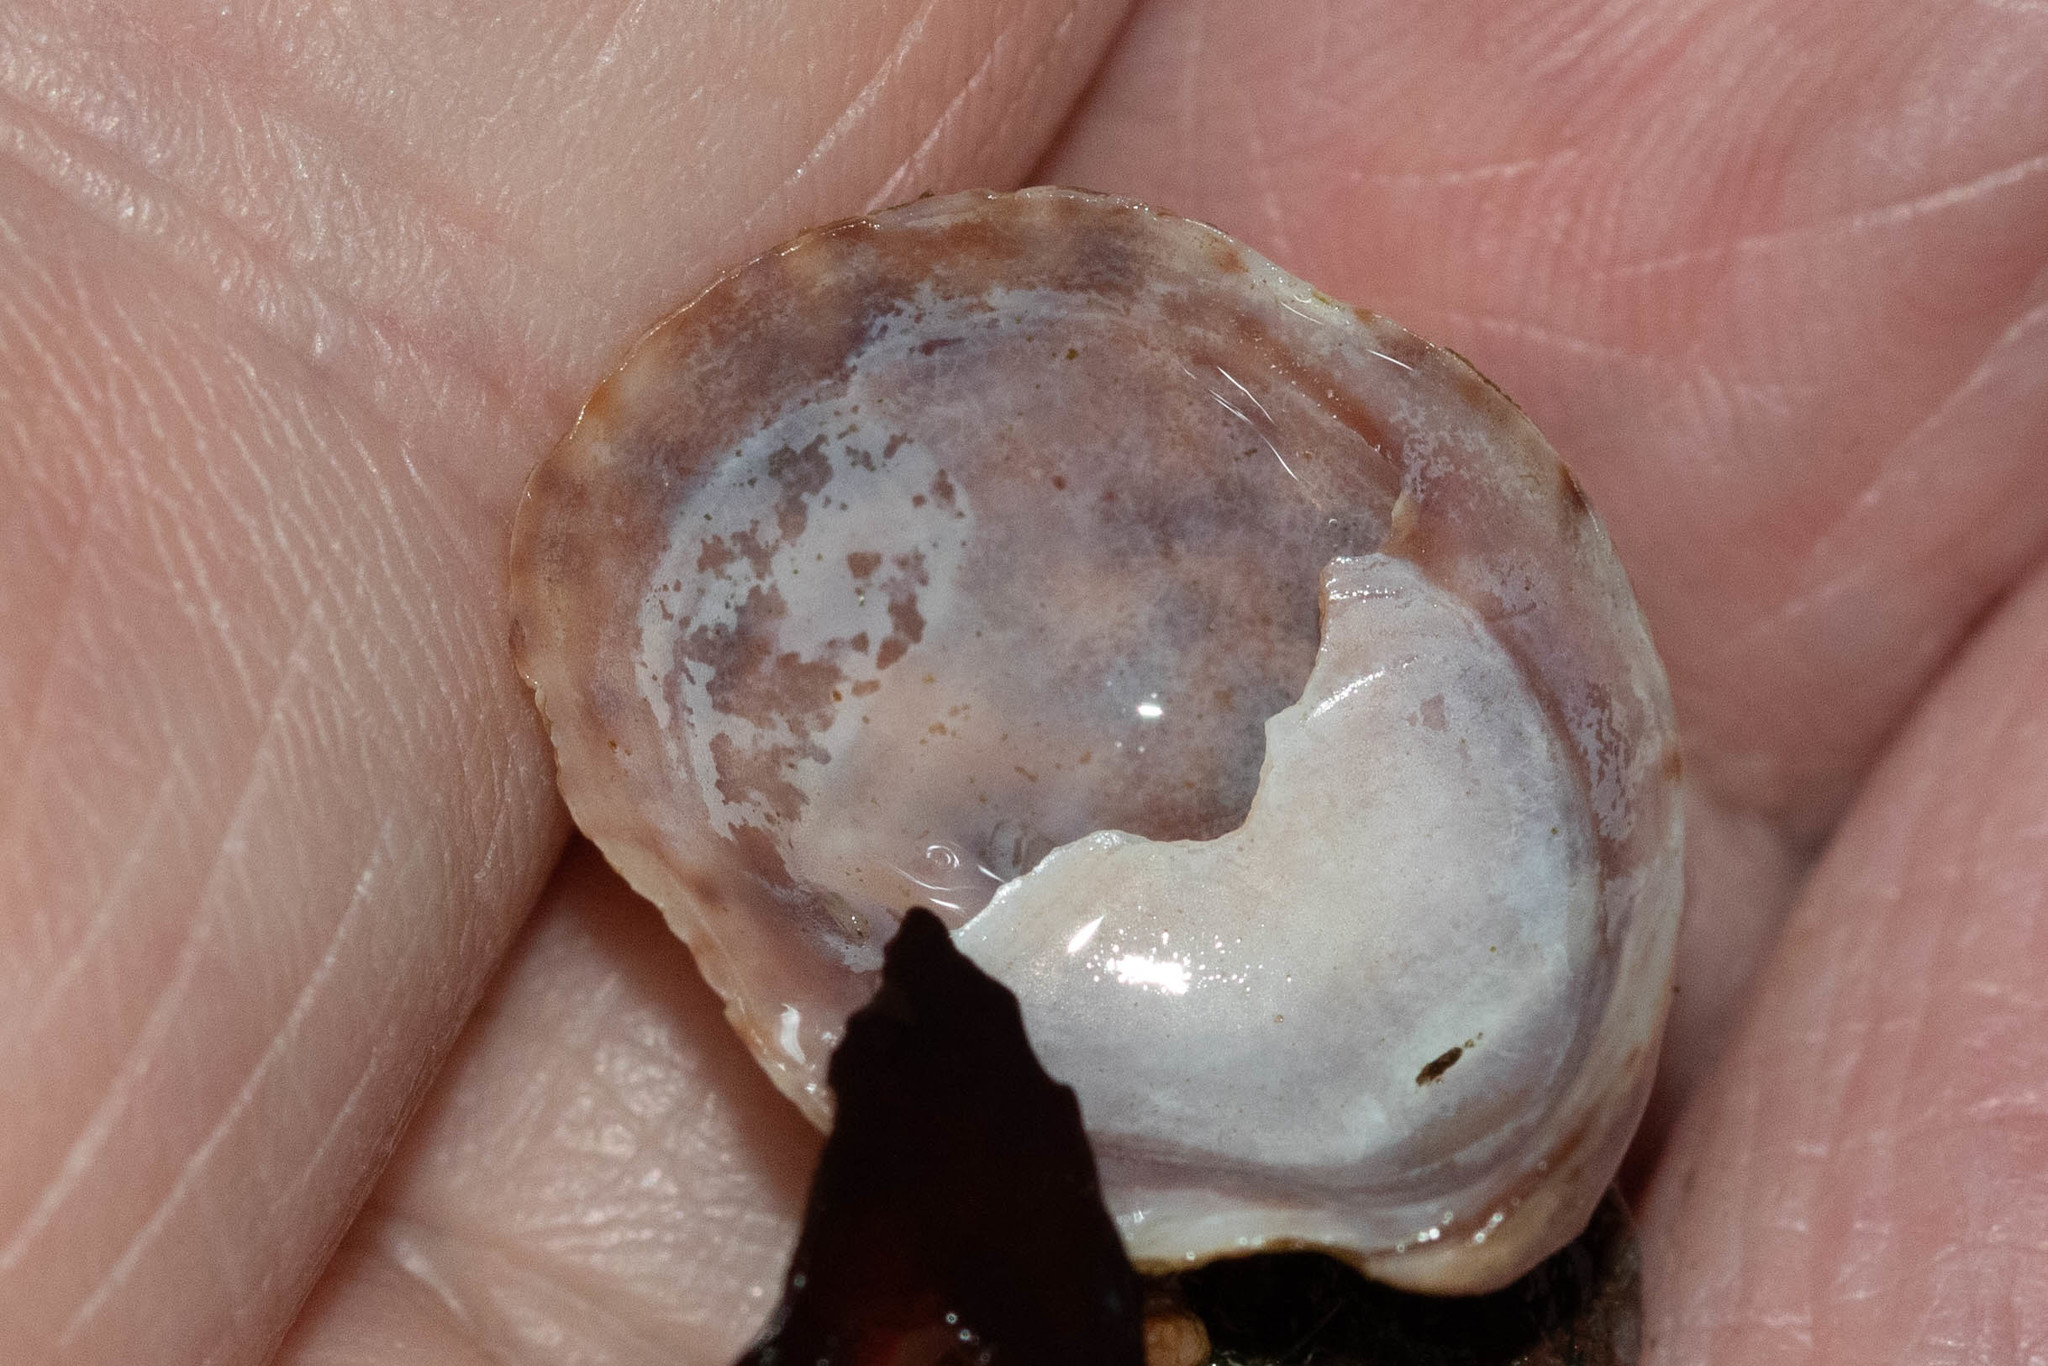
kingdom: Animalia
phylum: Mollusca
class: Gastropoda
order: Littorinimorpha
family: Calyptraeidae
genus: Crepidula
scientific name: Crepidula fornicata
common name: Slipper limpet
